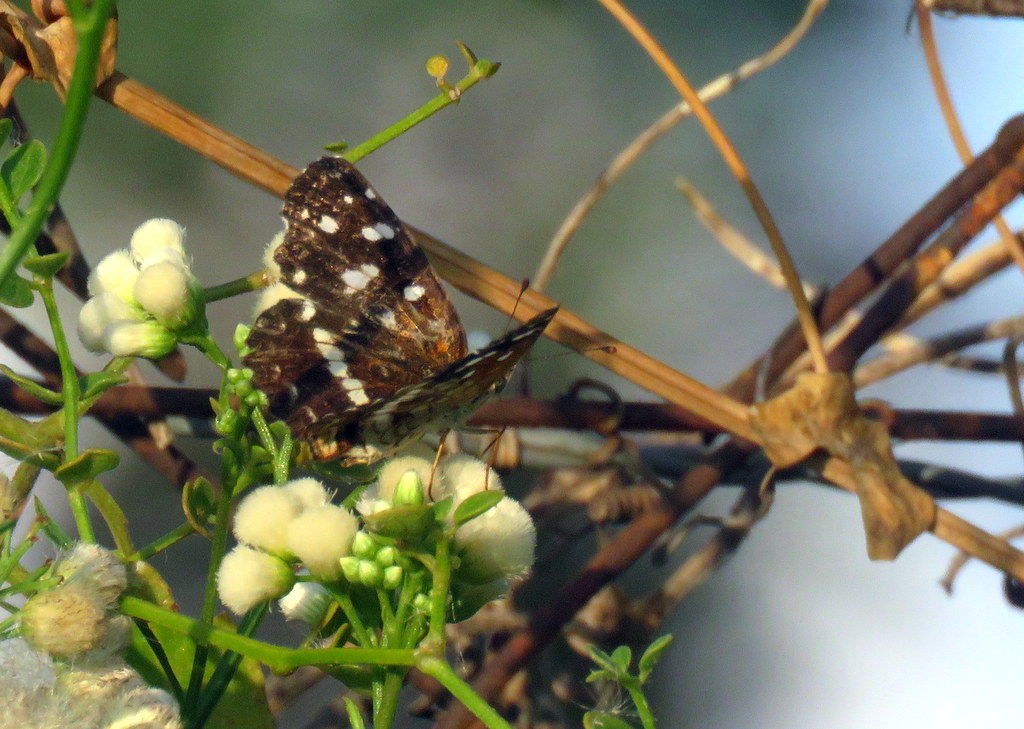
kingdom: Animalia
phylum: Arthropoda
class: Insecta
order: Lepidoptera
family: Nymphalidae
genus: Ortilia
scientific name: Ortilia ithra
